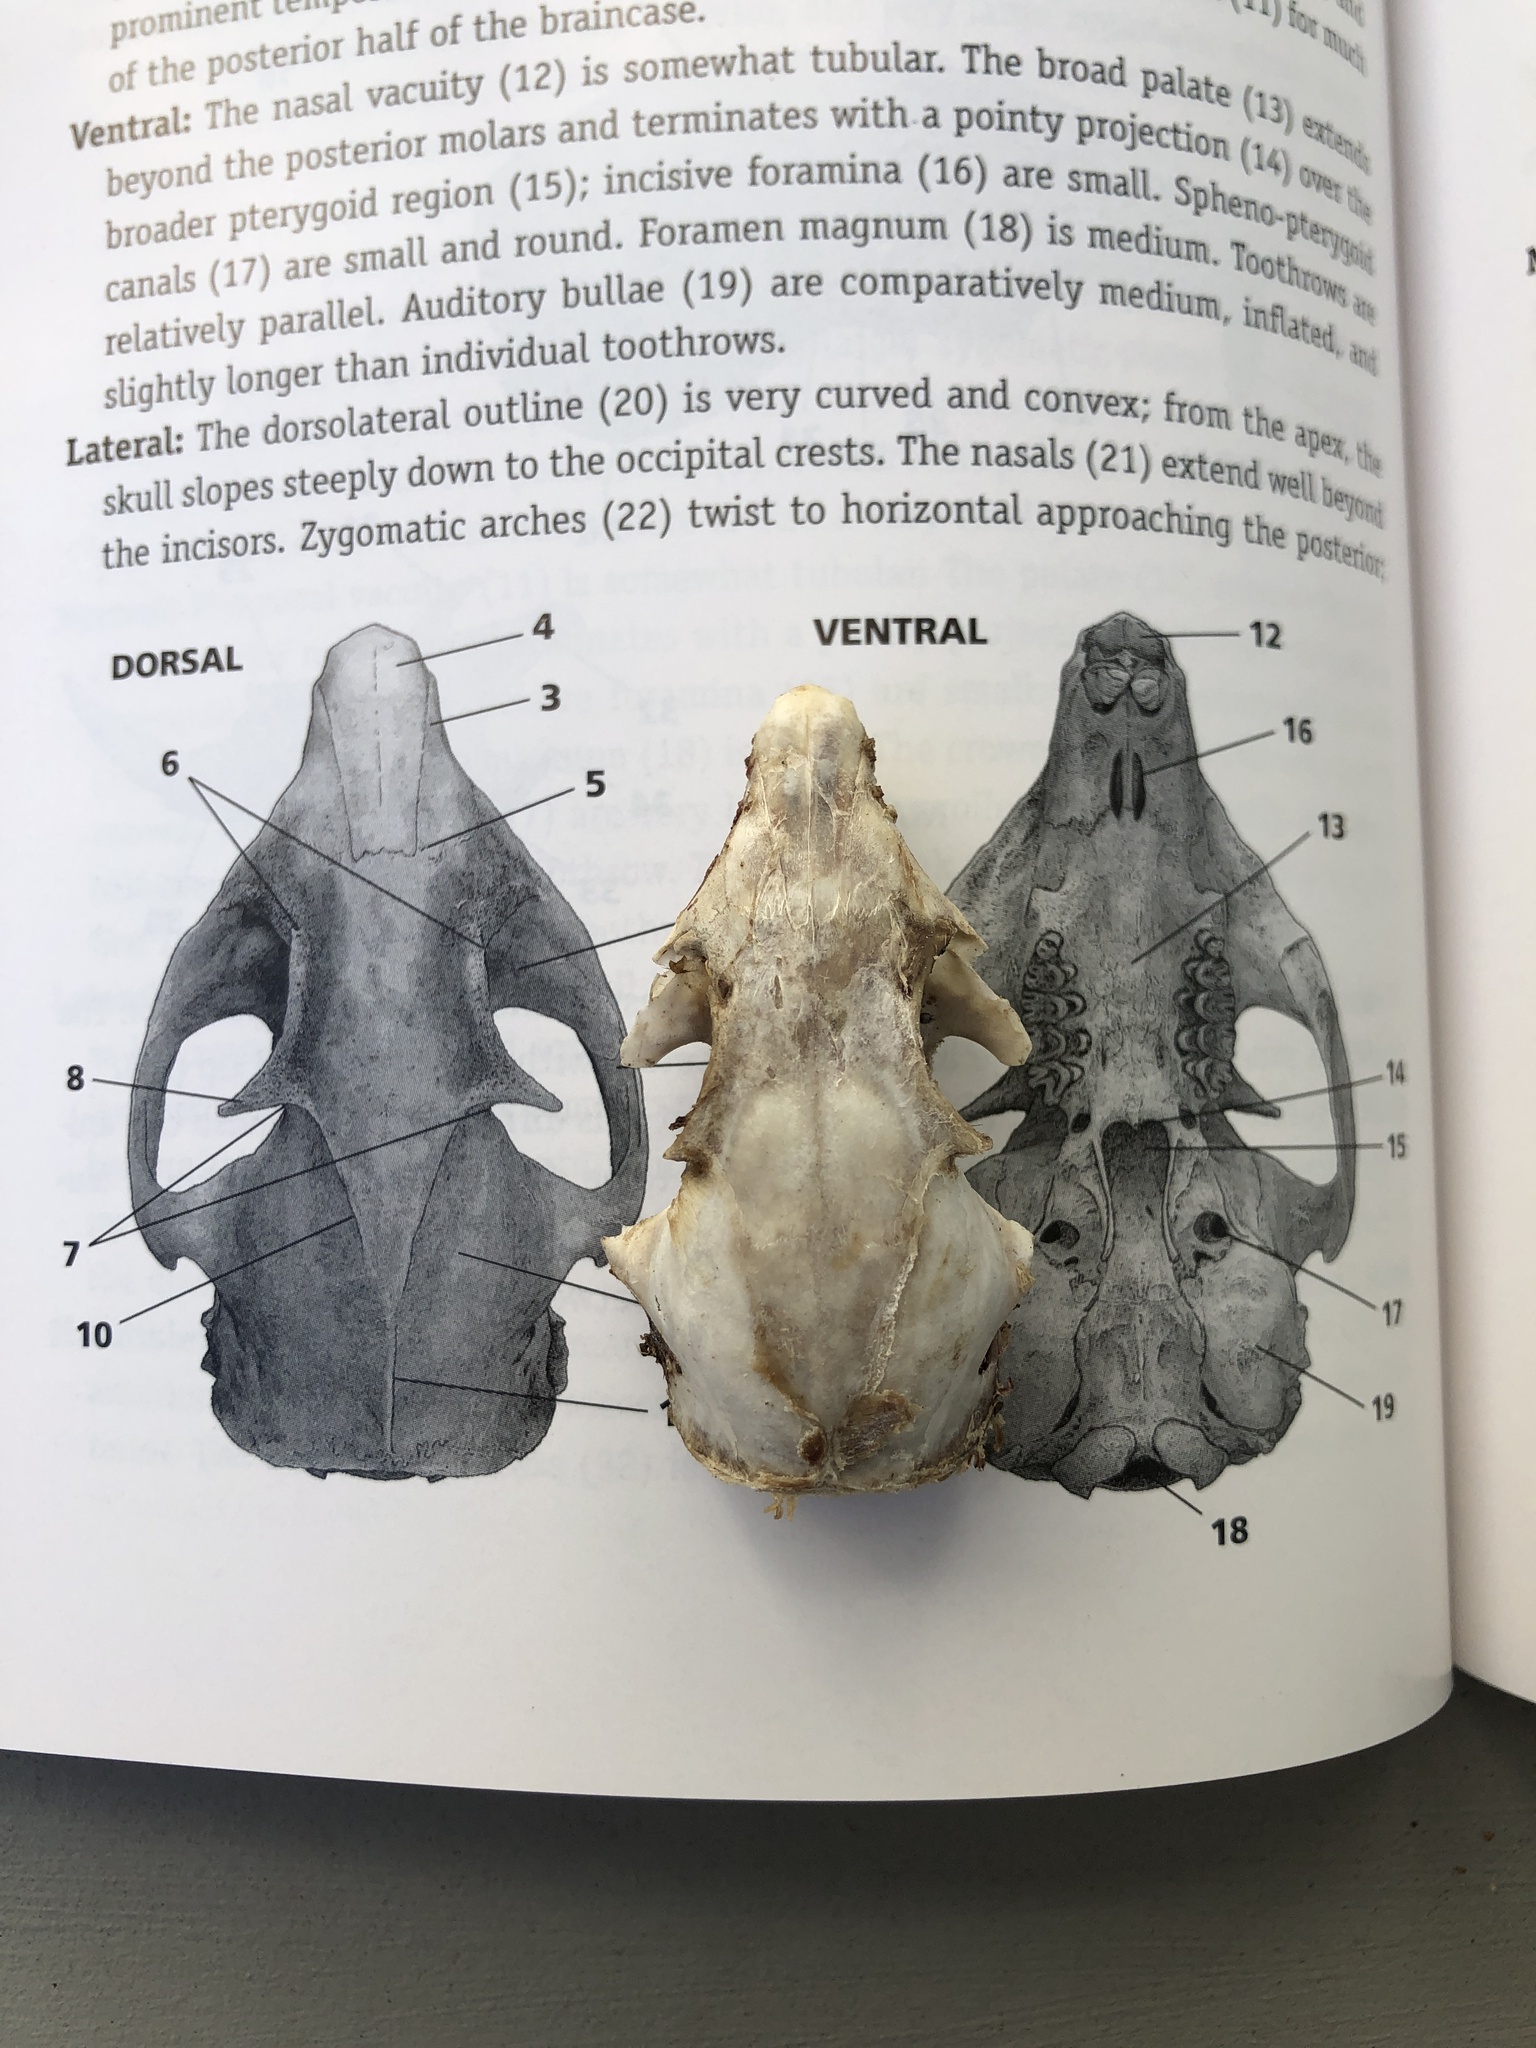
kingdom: Animalia
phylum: Chordata
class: Mammalia
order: Rodentia
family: Sciuridae
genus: Otospermophilus
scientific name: Otospermophilus beecheyi
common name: California ground squirrel
